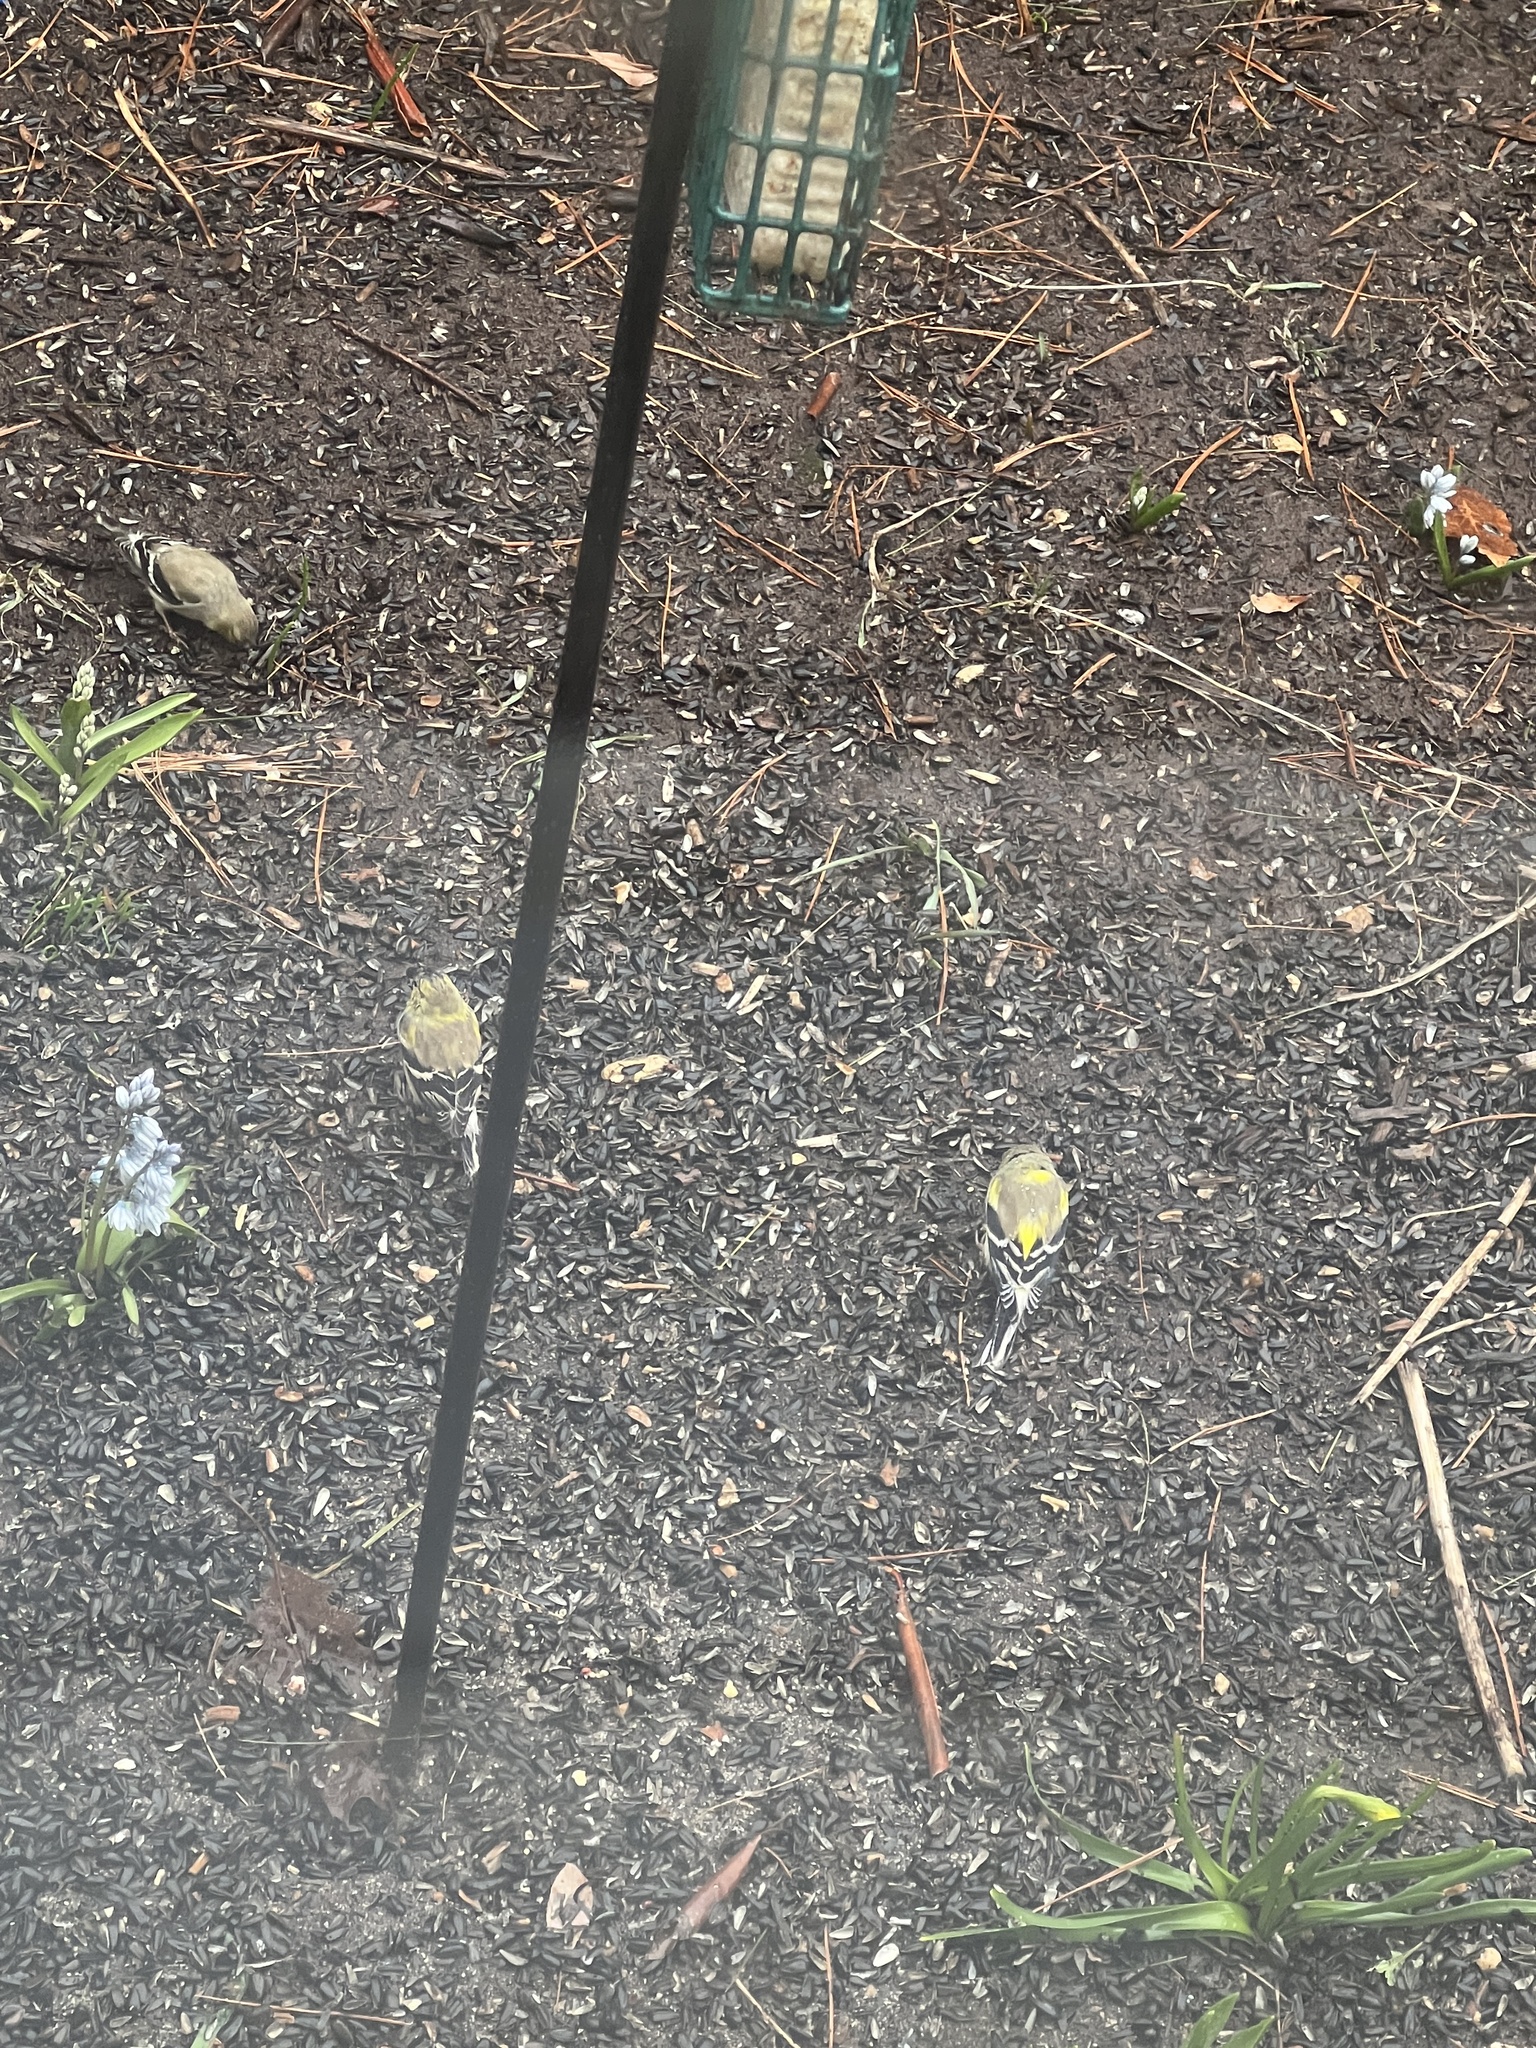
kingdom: Animalia
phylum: Chordata
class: Aves
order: Passeriformes
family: Fringillidae
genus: Spinus
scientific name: Spinus tristis
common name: American goldfinch
